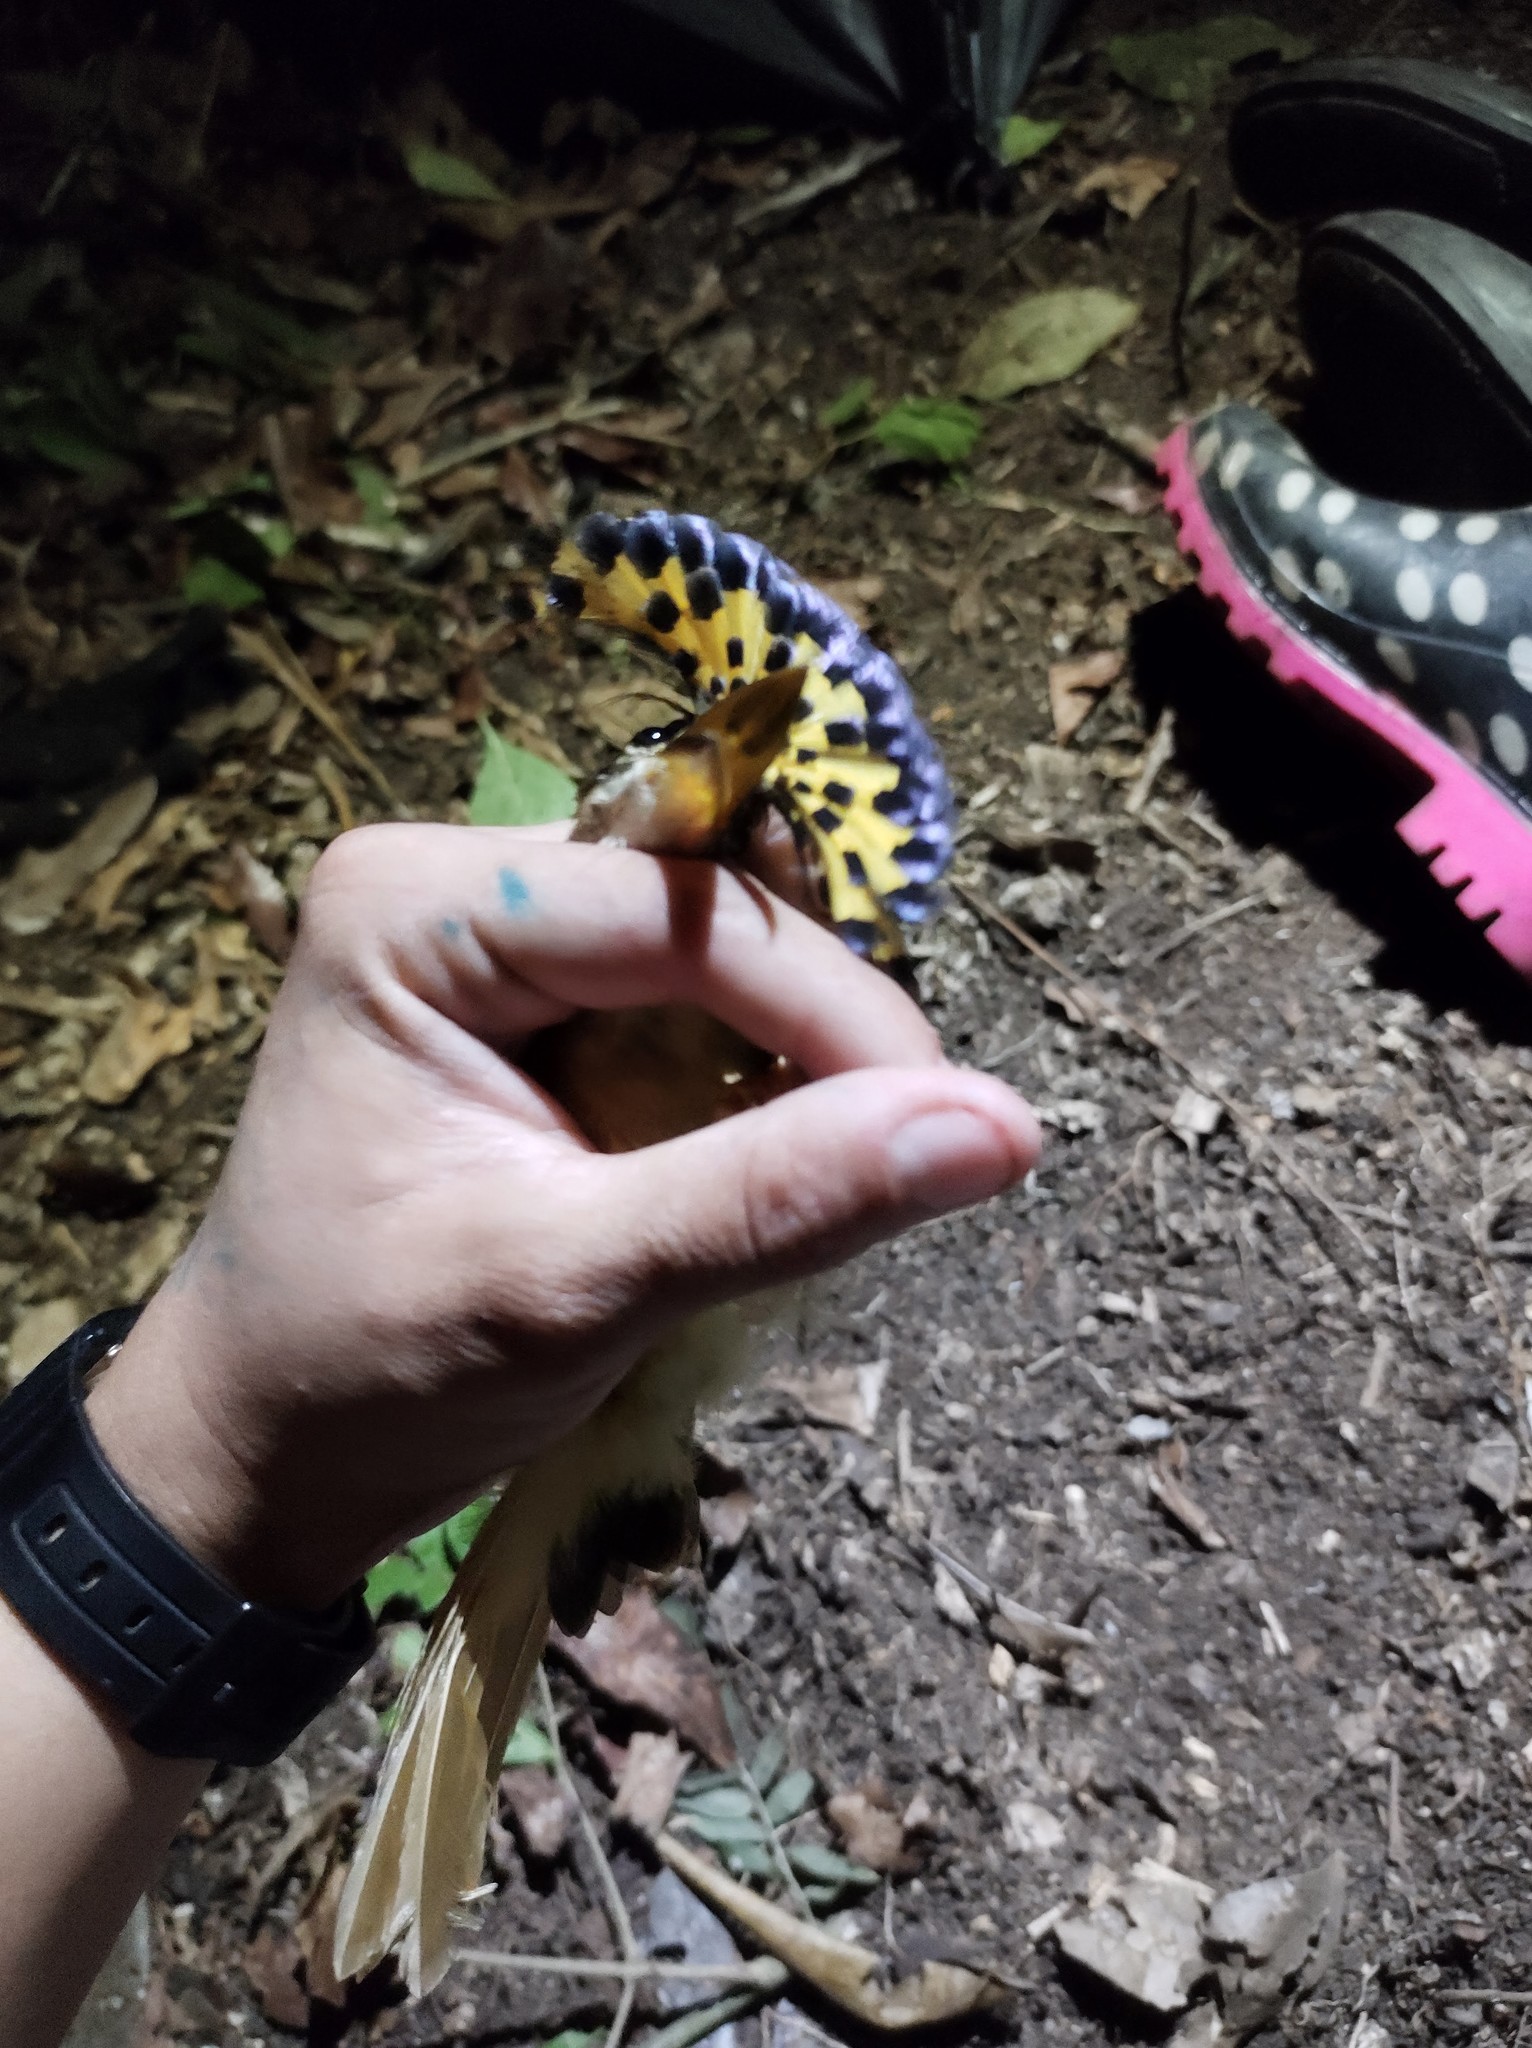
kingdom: Animalia
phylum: Chordata
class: Aves
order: Passeriformes
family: Tyrannidae
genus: Onychorhynchus
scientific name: Onychorhynchus coronatus
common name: Royal flycatcher
